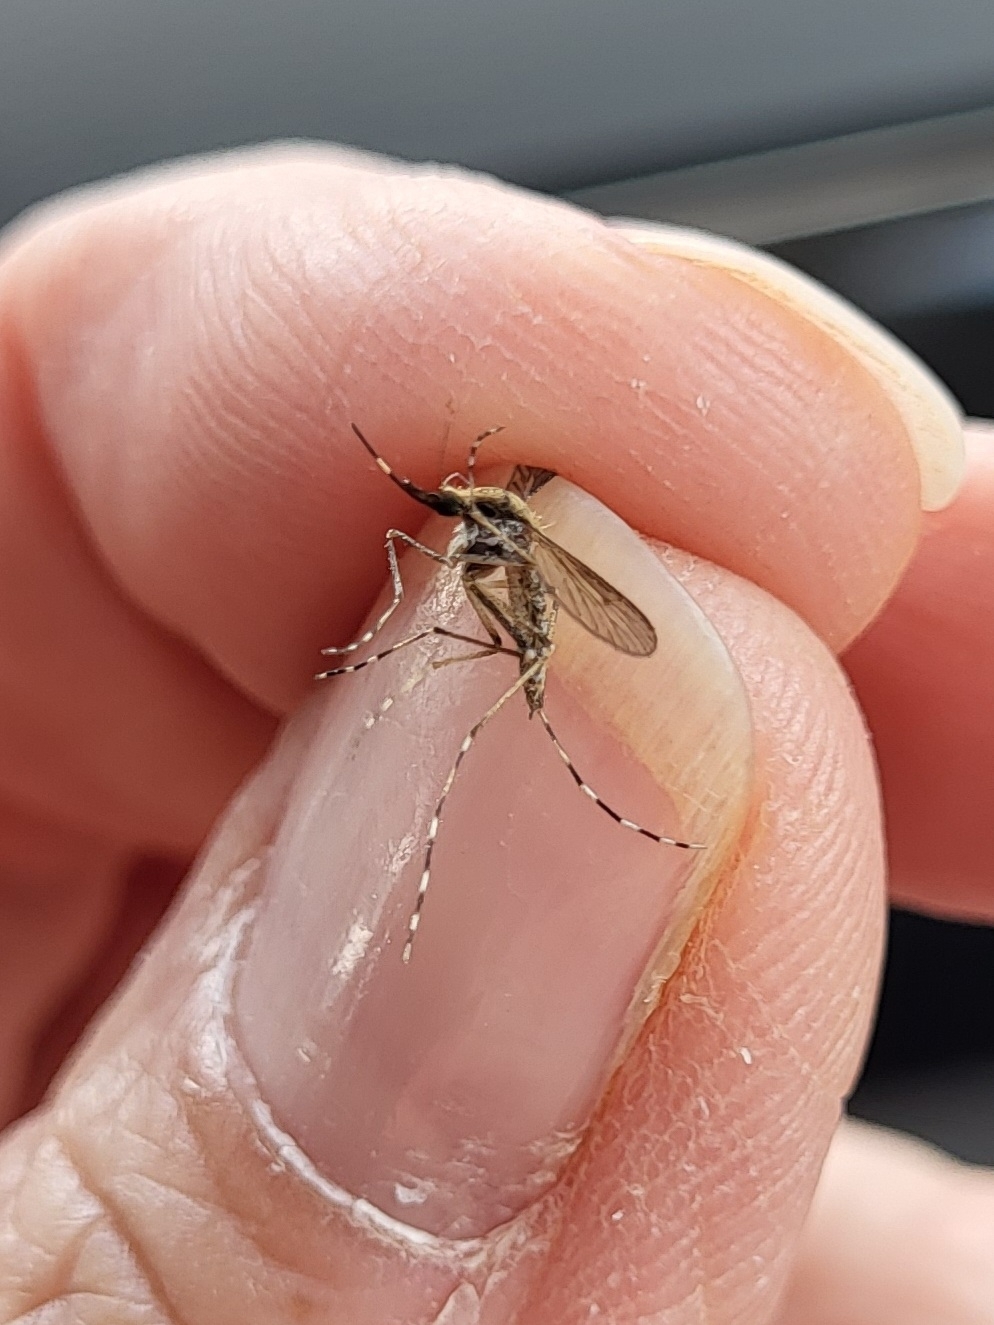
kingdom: Animalia
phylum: Arthropoda
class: Insecta
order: Diptera
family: Culicidae
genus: Aedes
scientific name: Aedes sollicitans
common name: Saltmarsh mosquito
